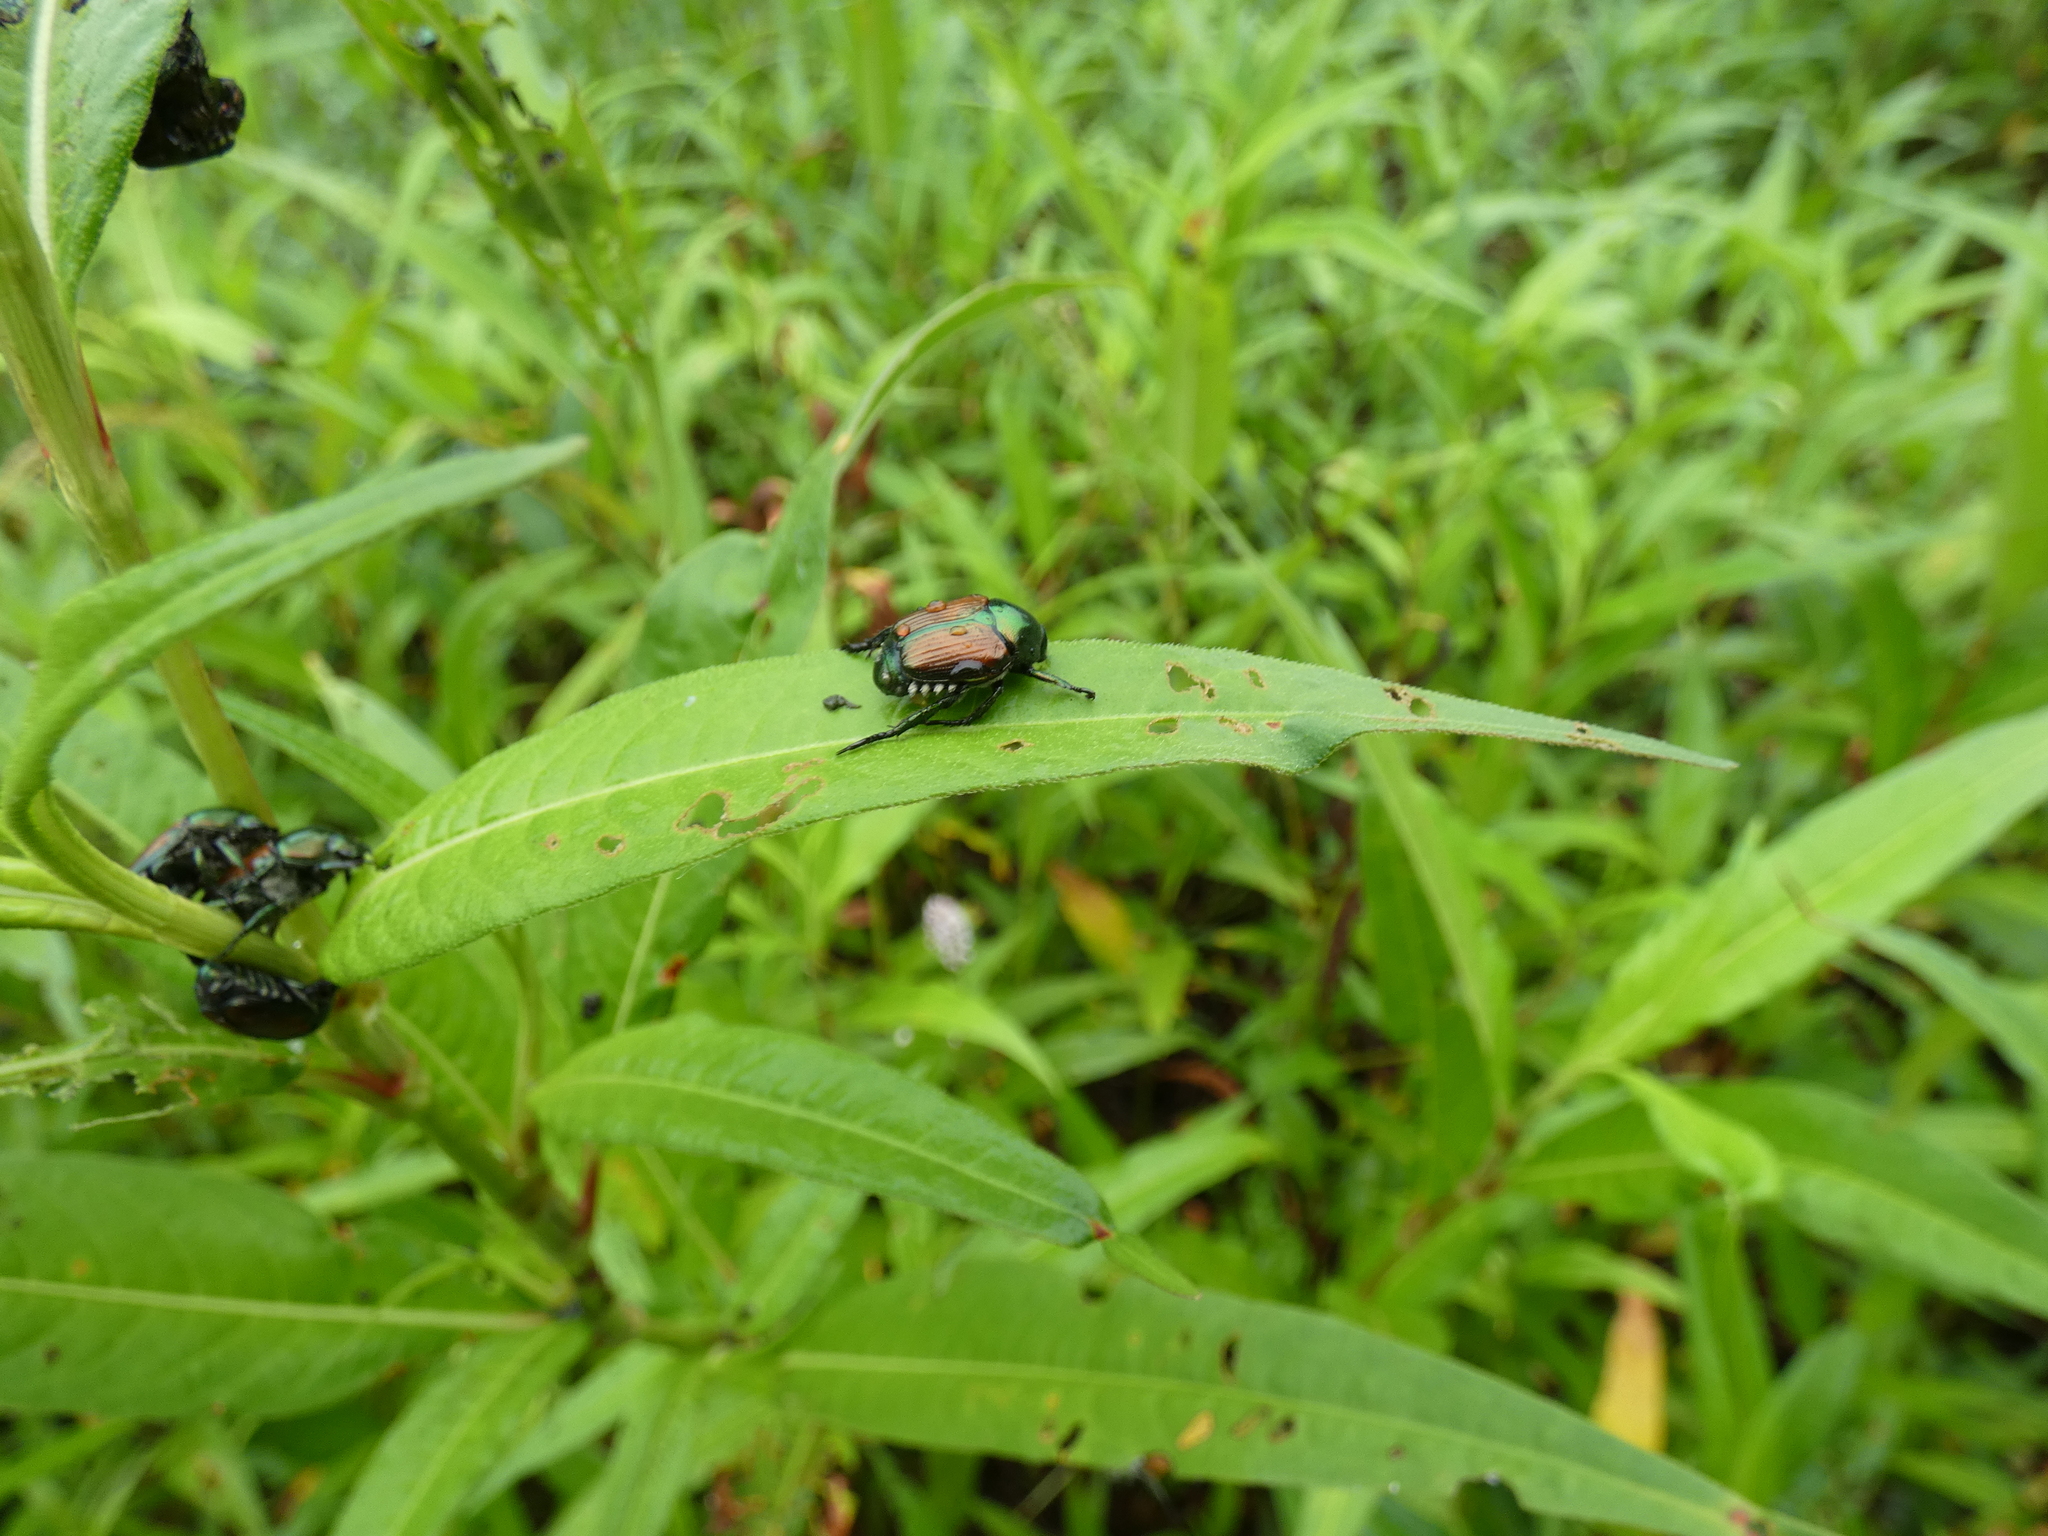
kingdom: Animalia
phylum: Arthropoda
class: Insecta
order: Coleoptera
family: Scarabaeidae
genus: Popillia
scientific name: Popillia japonica
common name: Japanese beetle
